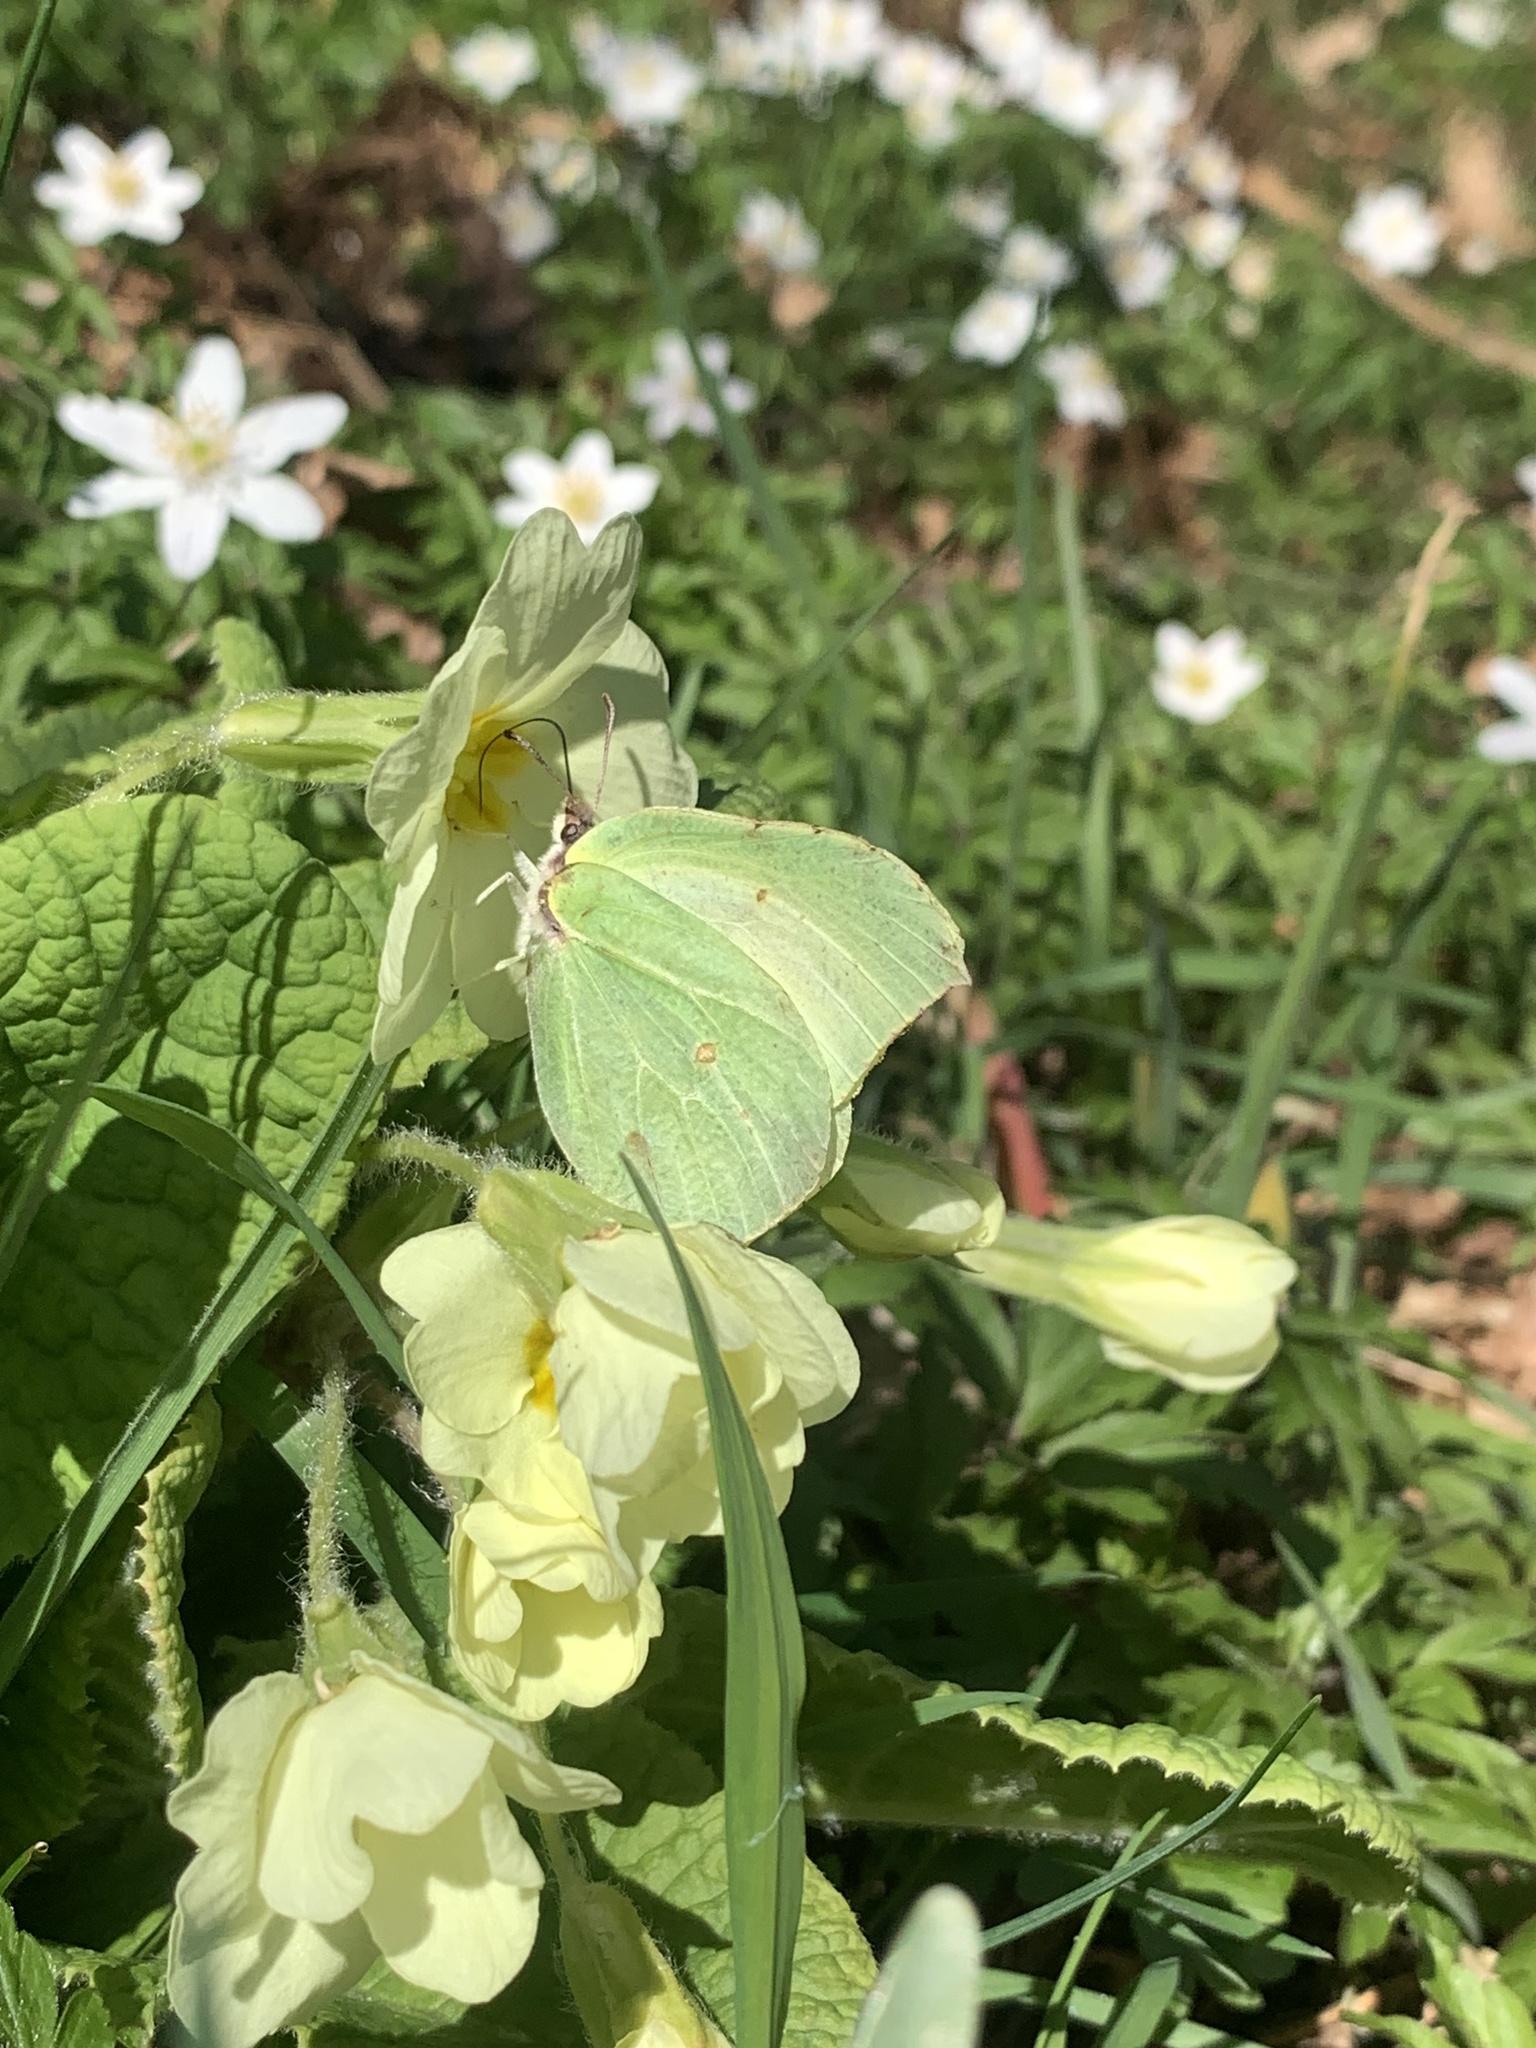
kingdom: Animalia
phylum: Arthropoda
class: Insecta
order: Lepidoptera
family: Pieridae
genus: Gonepteryx
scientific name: Gonepteryx rhamni
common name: Brimstone
